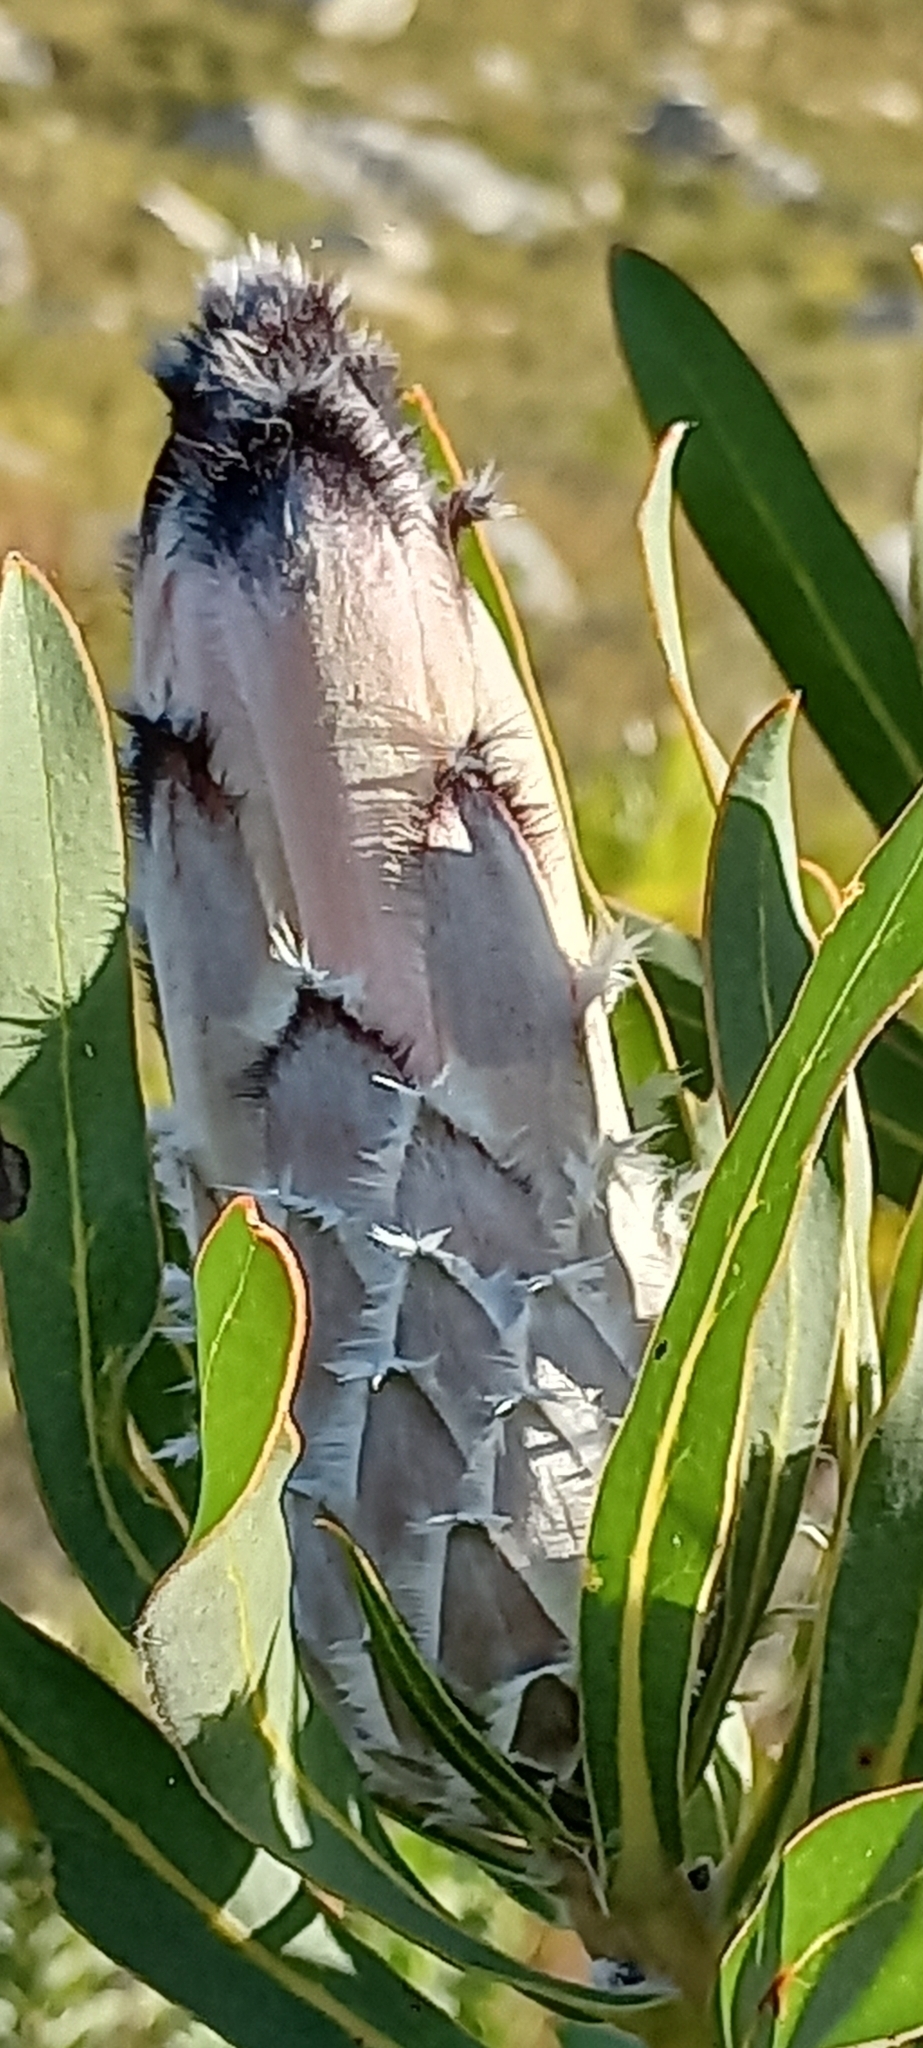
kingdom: Plantae
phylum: Tracheophyta
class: Magnoliopsida
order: Proteales
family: Proteaceae
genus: Protea
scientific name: Protea
